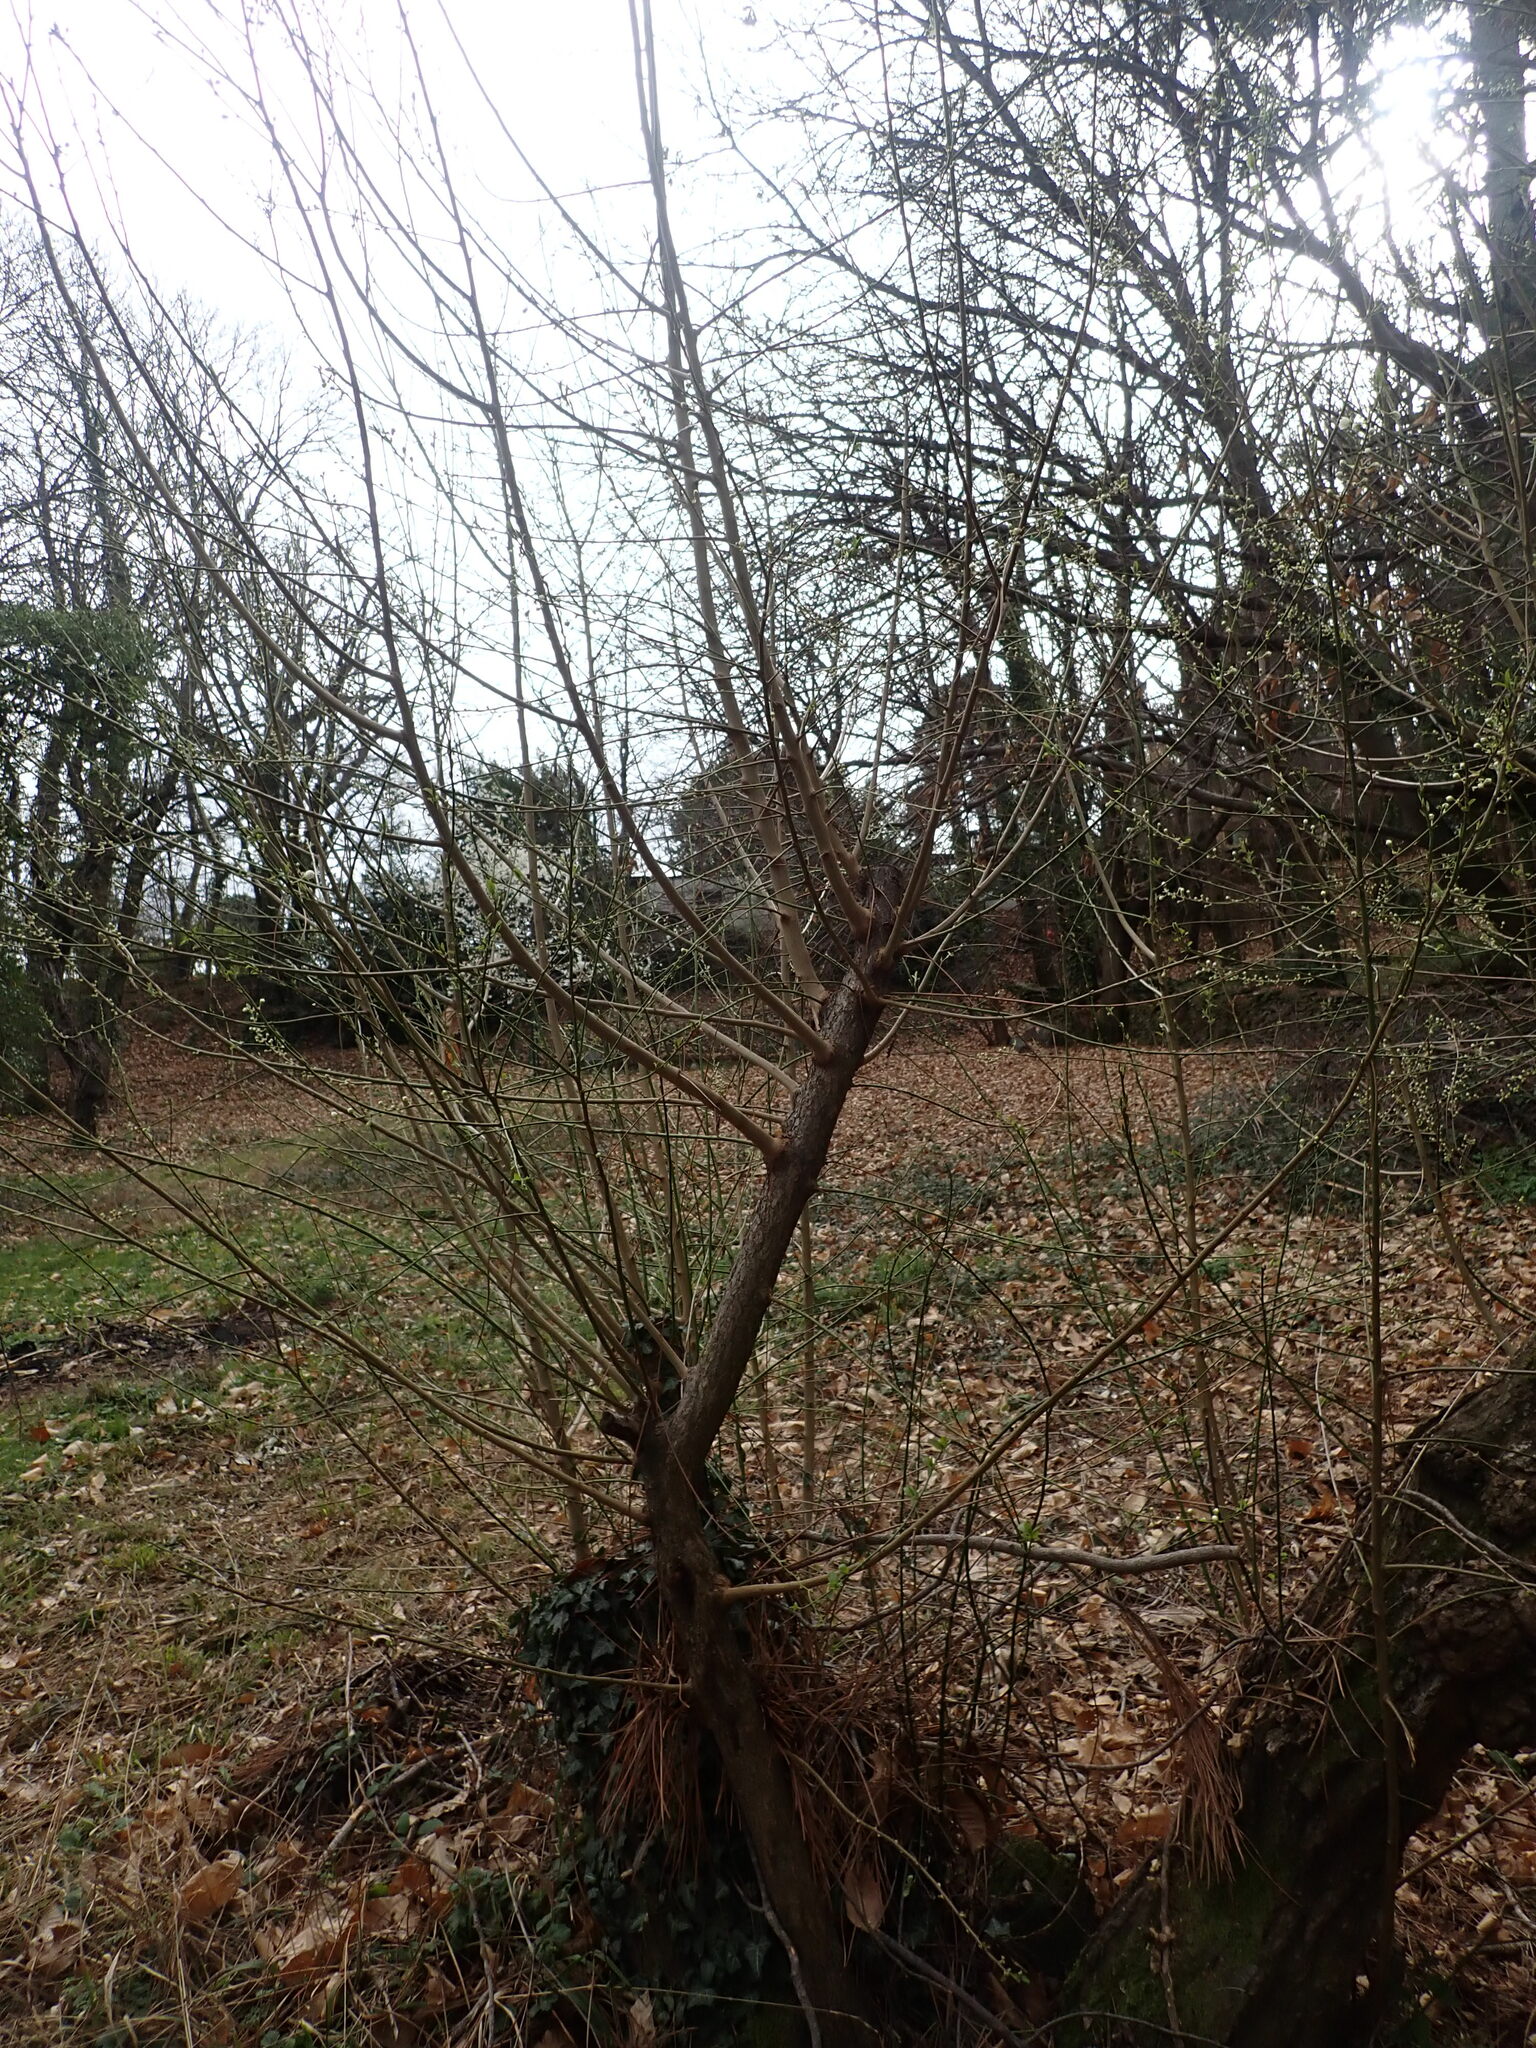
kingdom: Animalia
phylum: Arthropoda
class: Insecta
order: Lepidoptera
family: Lycaenidae
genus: Thecla
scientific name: Thecla betulae
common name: Brown hairstreak
